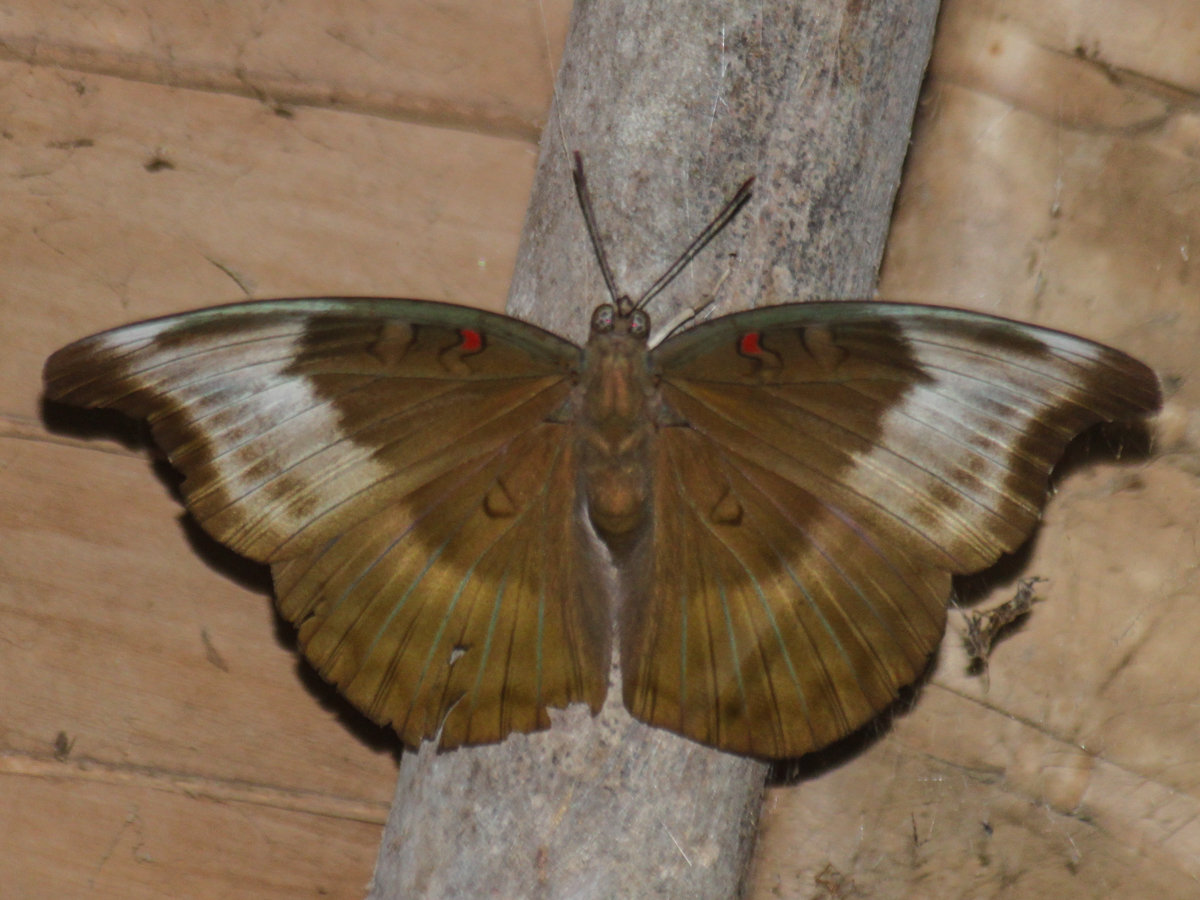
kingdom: Animalia
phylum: Arthropoda
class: Insecta
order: Lepidoptera
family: Nymphalidae
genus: Euthalia
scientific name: Euthalia Dophla evelina
